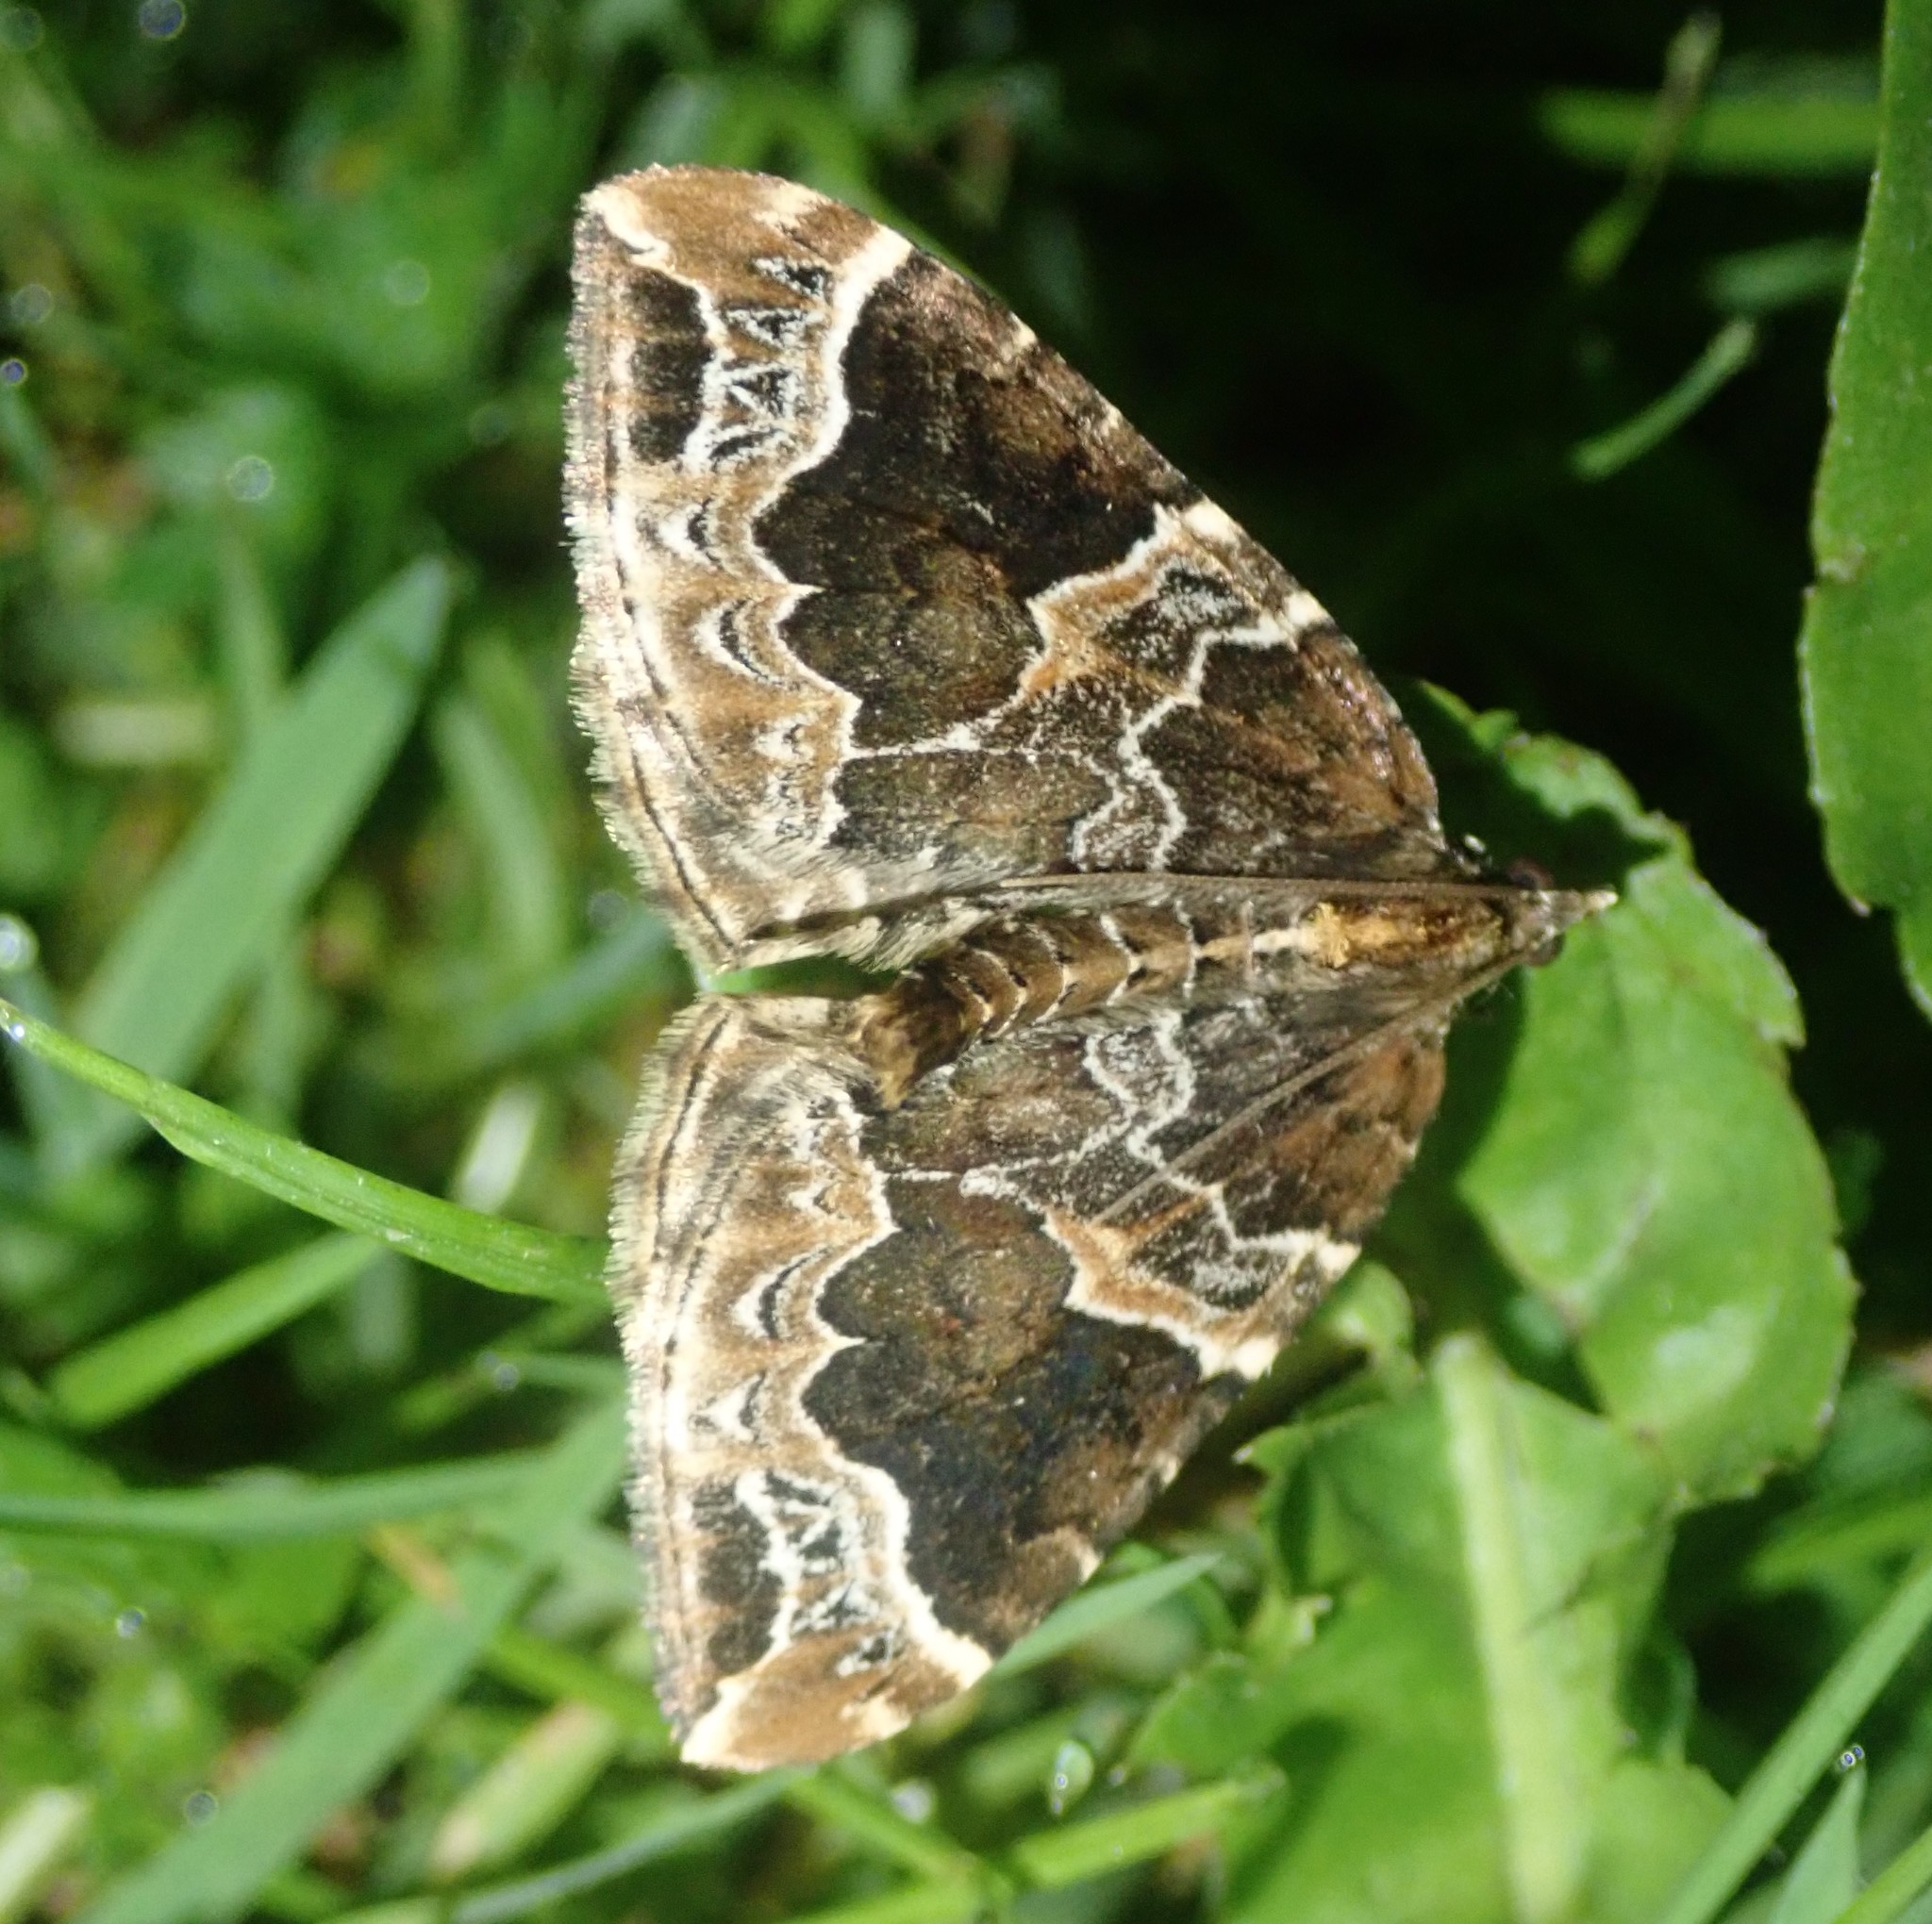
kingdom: Animalia
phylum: Arthropoda
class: Insecta
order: Lepidoptera
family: Geometridae
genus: Eulithis
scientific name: Eulithis prunata
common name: Phoenix
